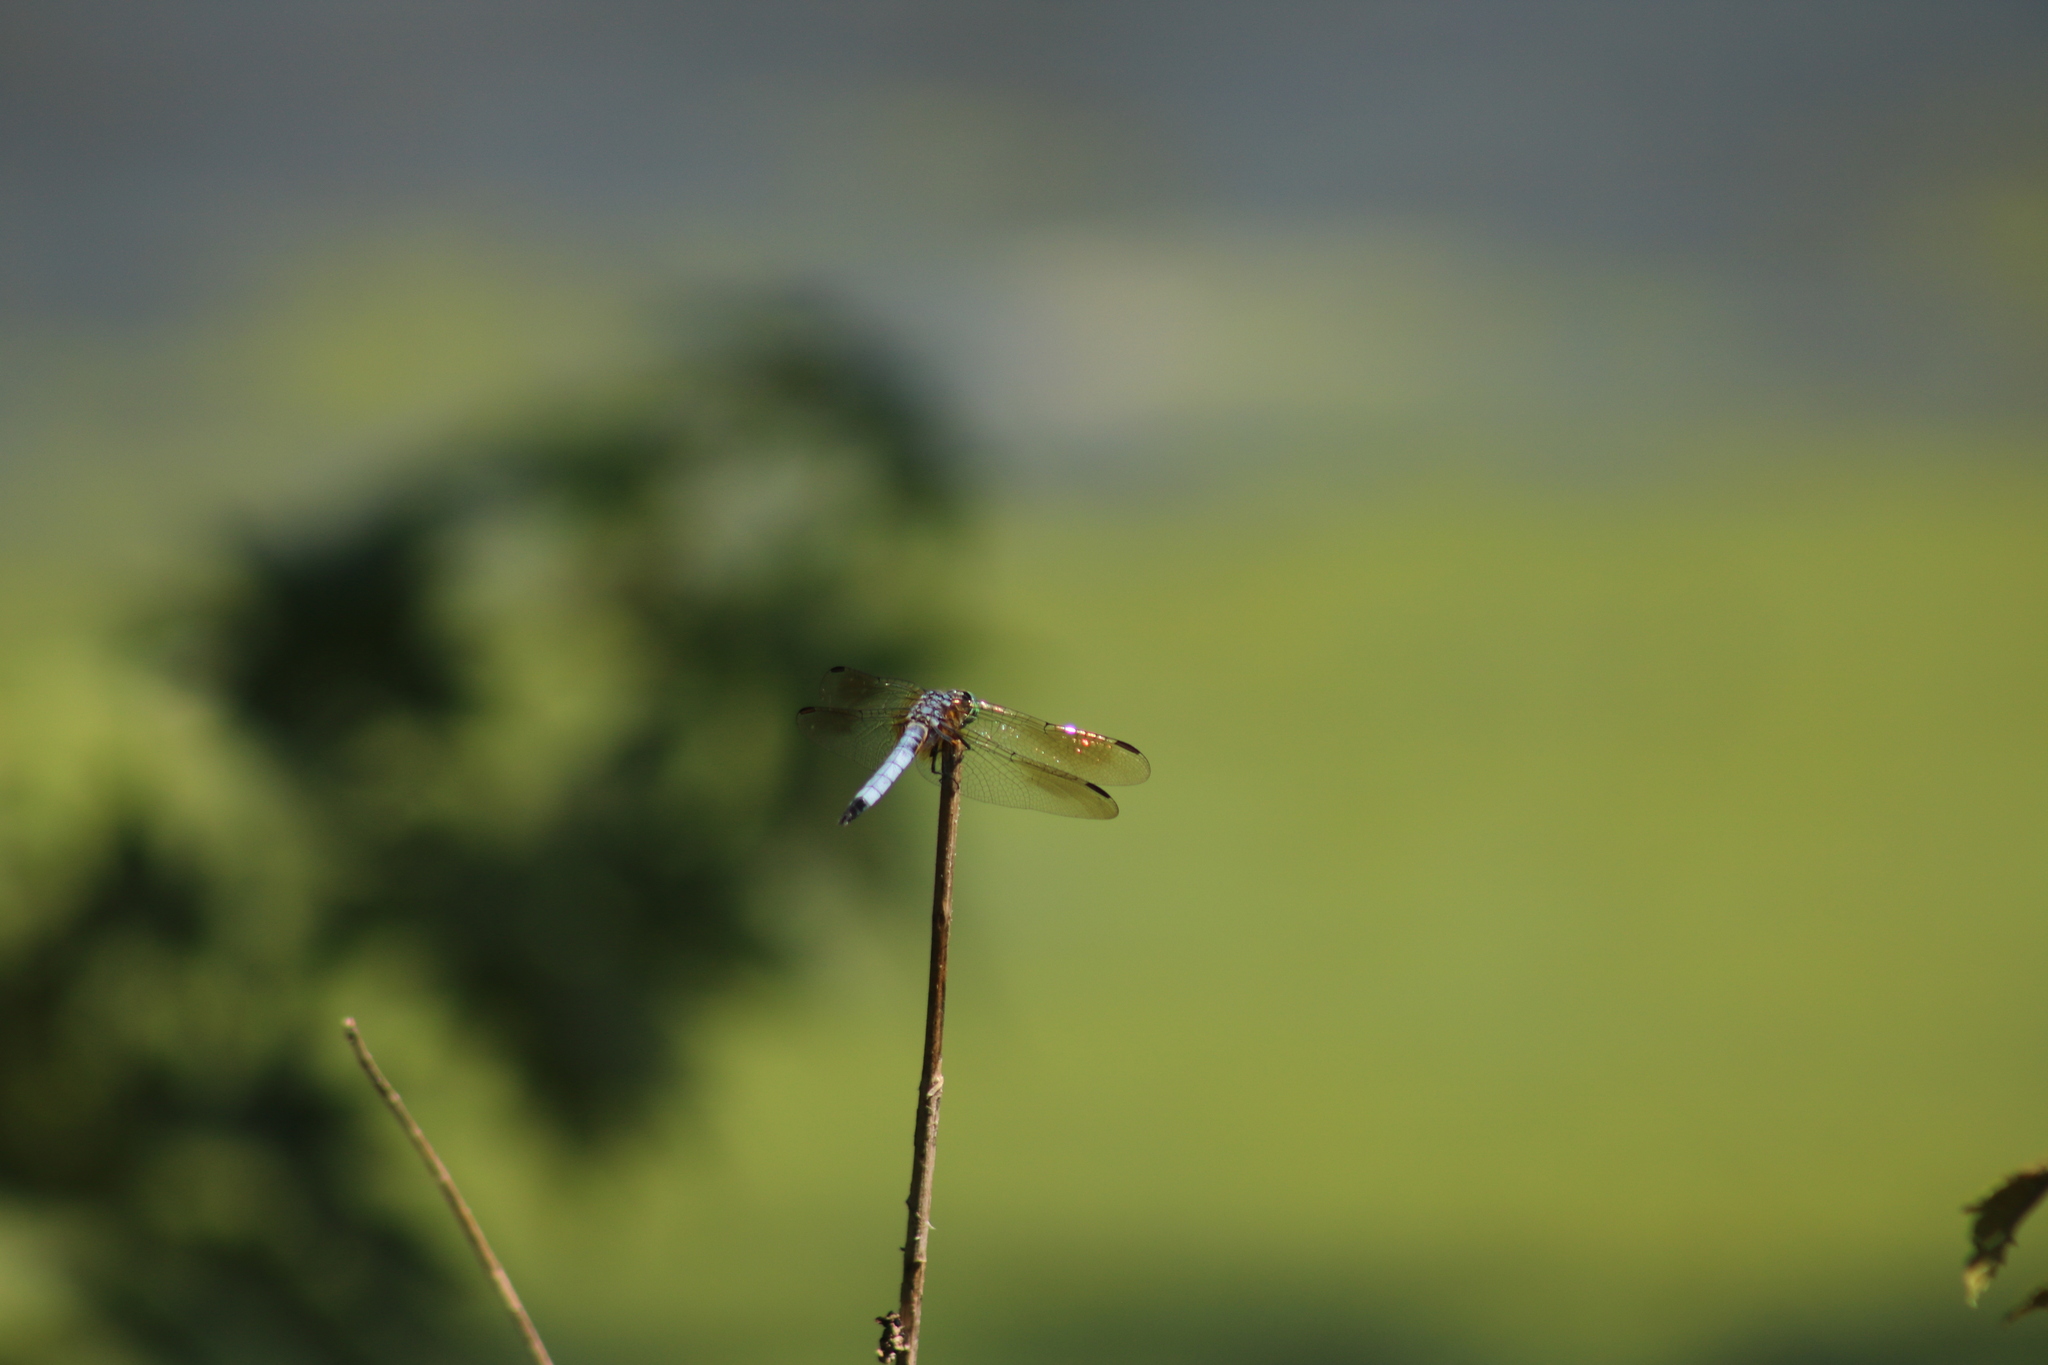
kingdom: Animalia
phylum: Arthropoda
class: Insecta
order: Odonata
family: Libellulidae
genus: Pachydiplax
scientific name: Pachydiplax longipennis
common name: Blue dasher
